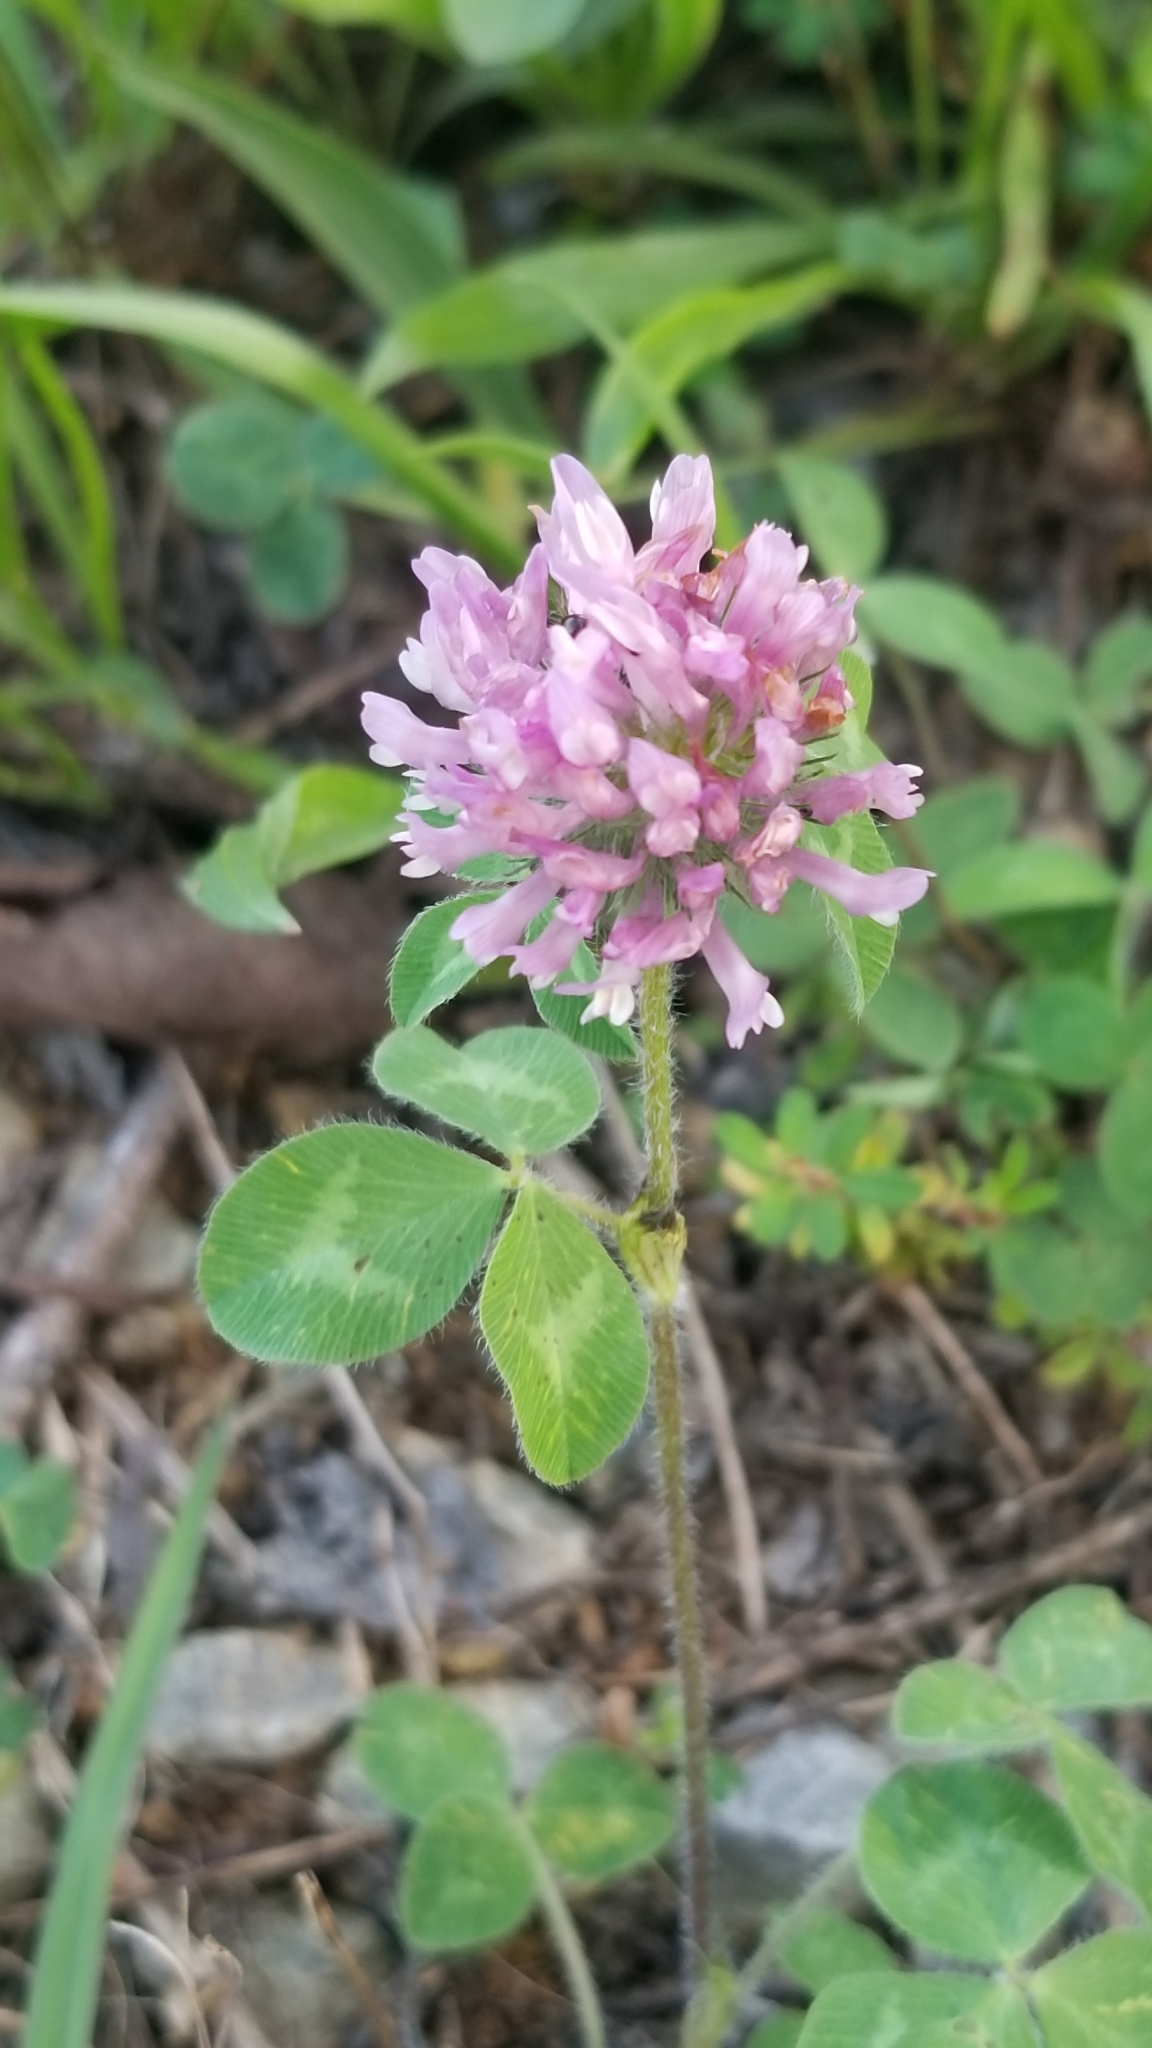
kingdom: Plantae
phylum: Tracheophyta
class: Magnoliopsida
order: Fabales
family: Fabaceae
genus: Trifolium
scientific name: Trifolium pratense
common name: Red clover
